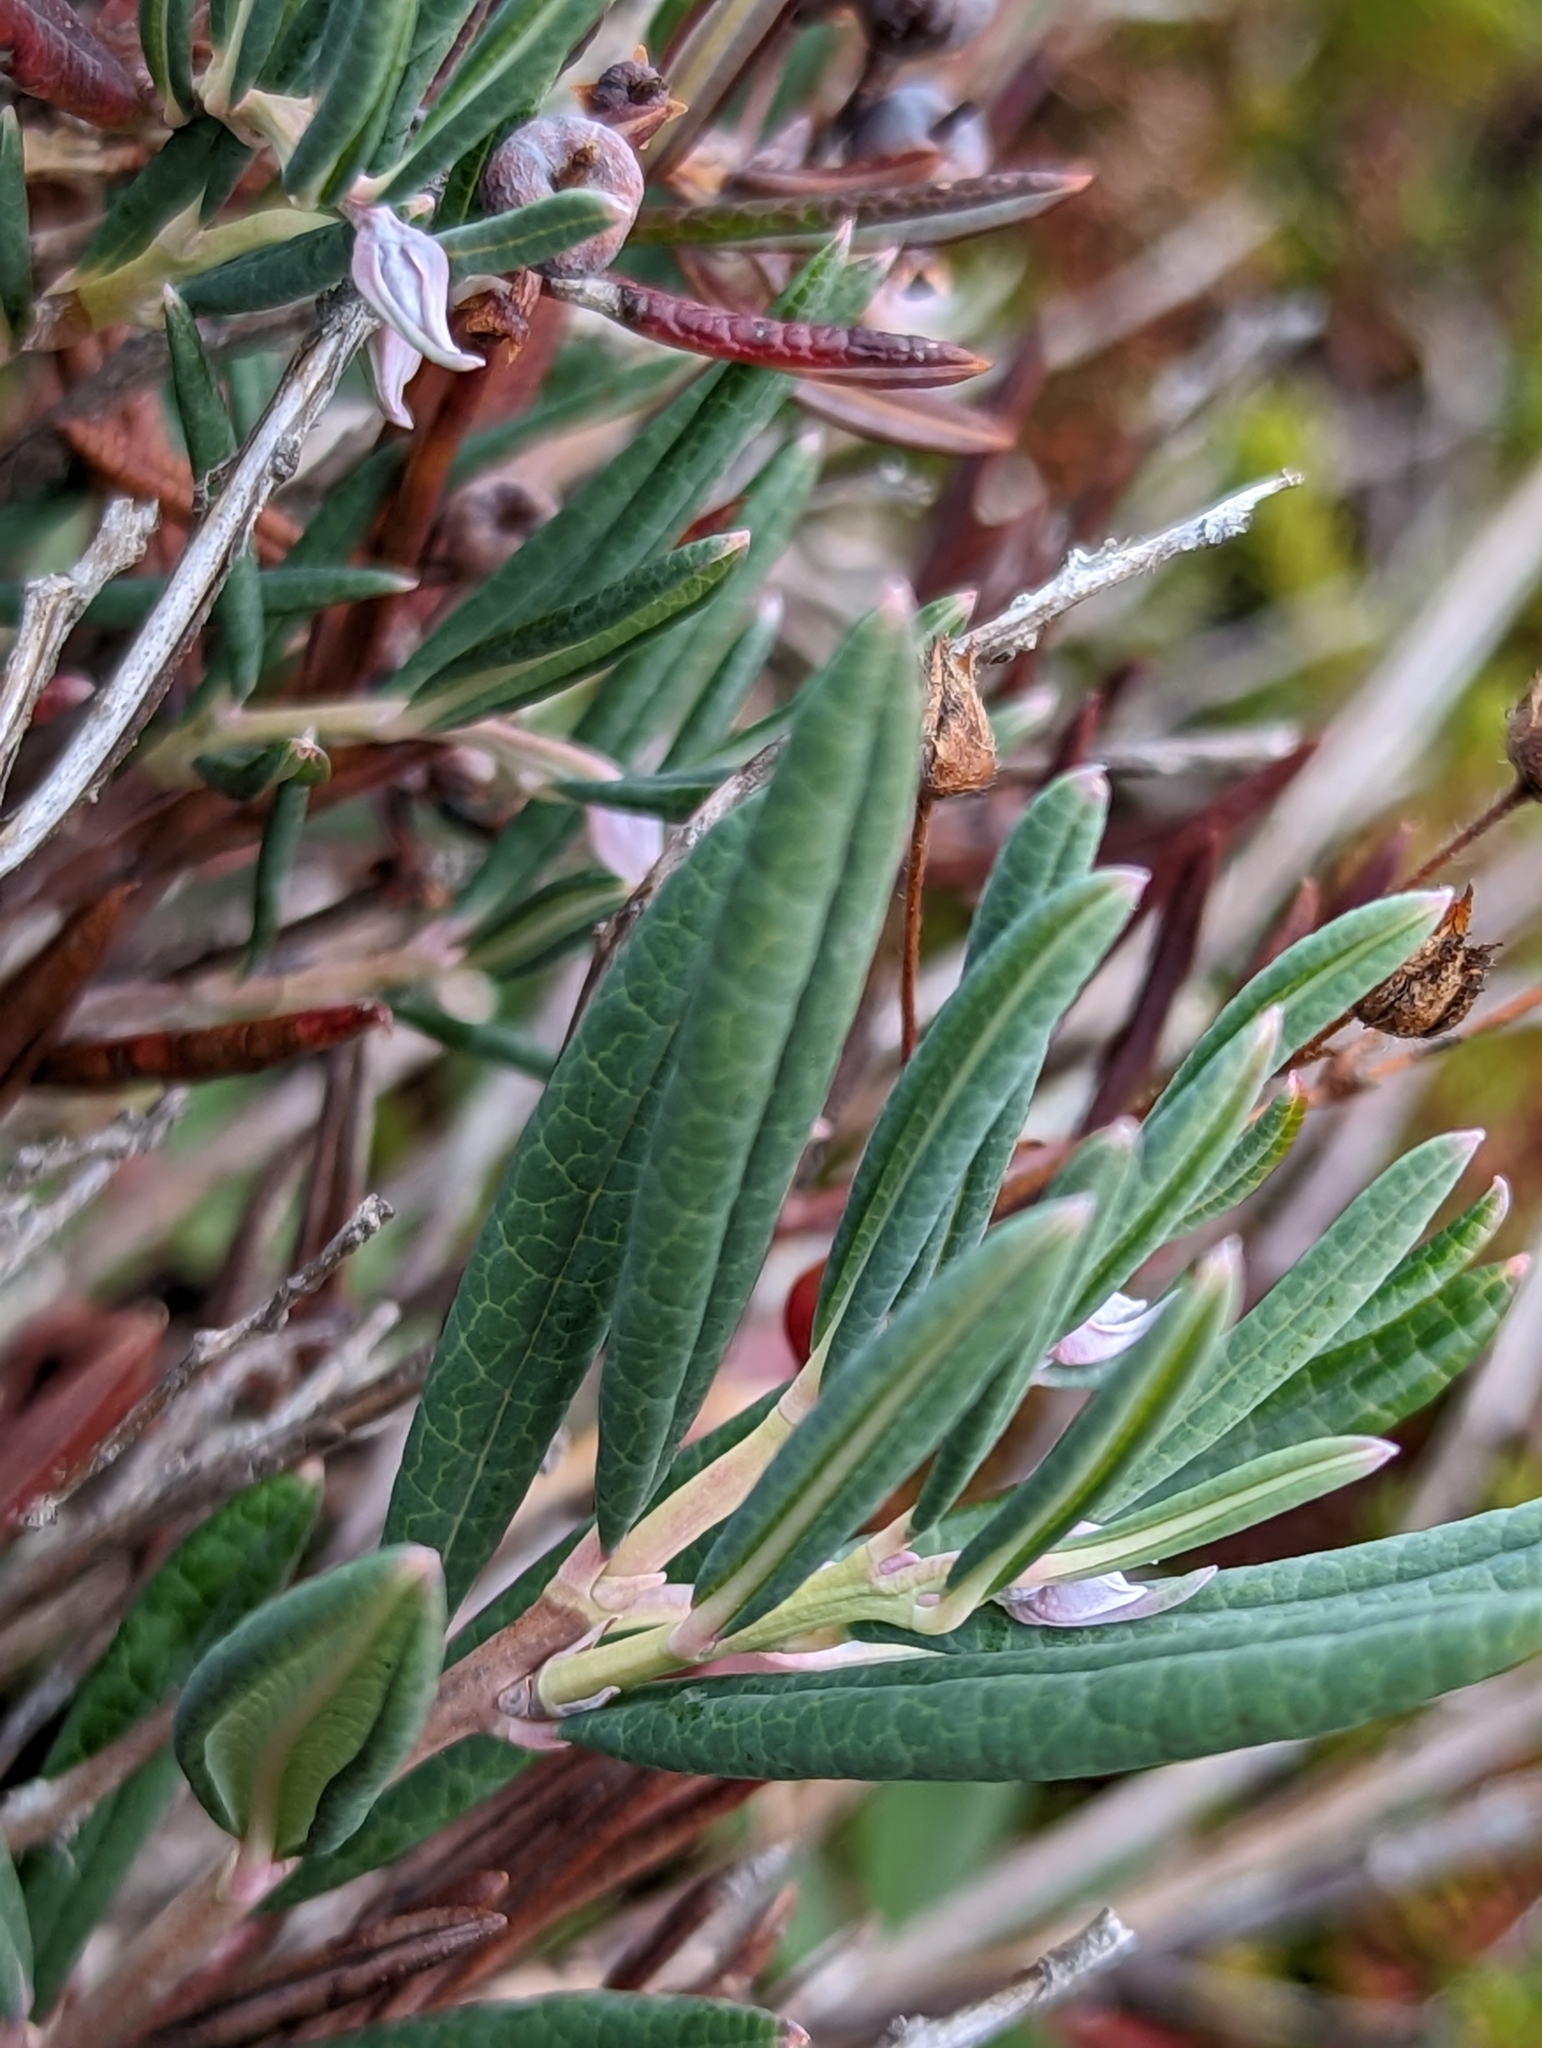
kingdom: Plantae
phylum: Tracheophyta
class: Magnoliopsida
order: Ericales
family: Ericaceae
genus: Andromeda
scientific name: Andromeda polifolia
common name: Bog-rosemary
